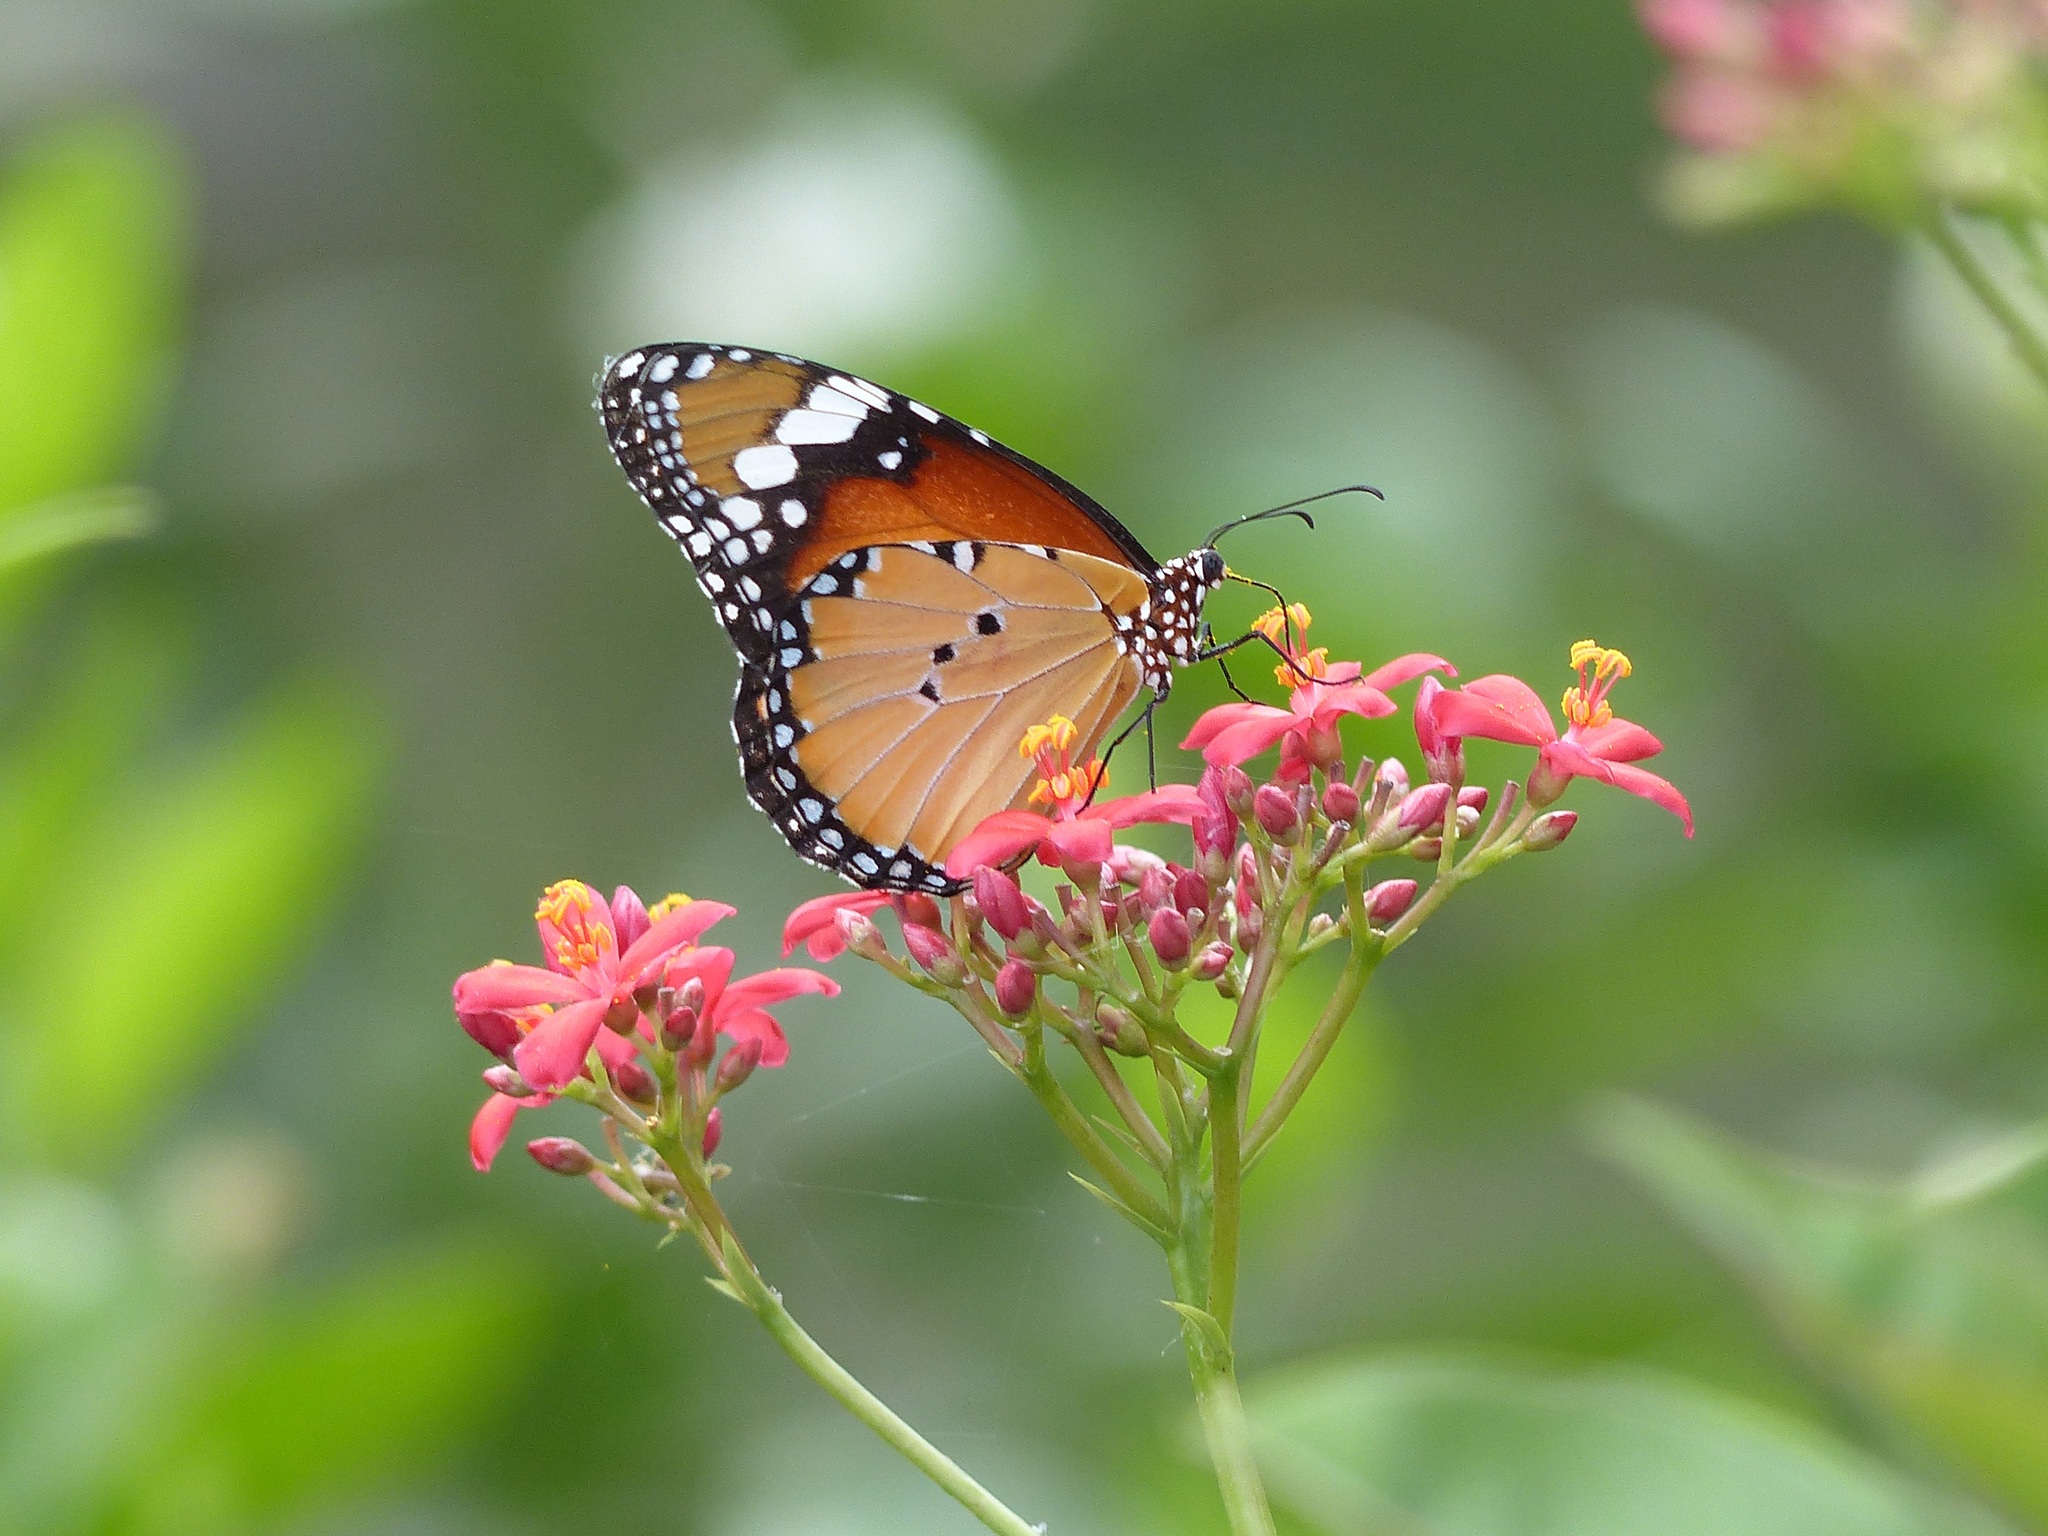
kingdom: Animalia
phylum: Arthropoda
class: Insecta
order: Lepidoptera
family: Nymphalidae
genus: Danaus
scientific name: Danaus chrysippus
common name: Plain tiger
